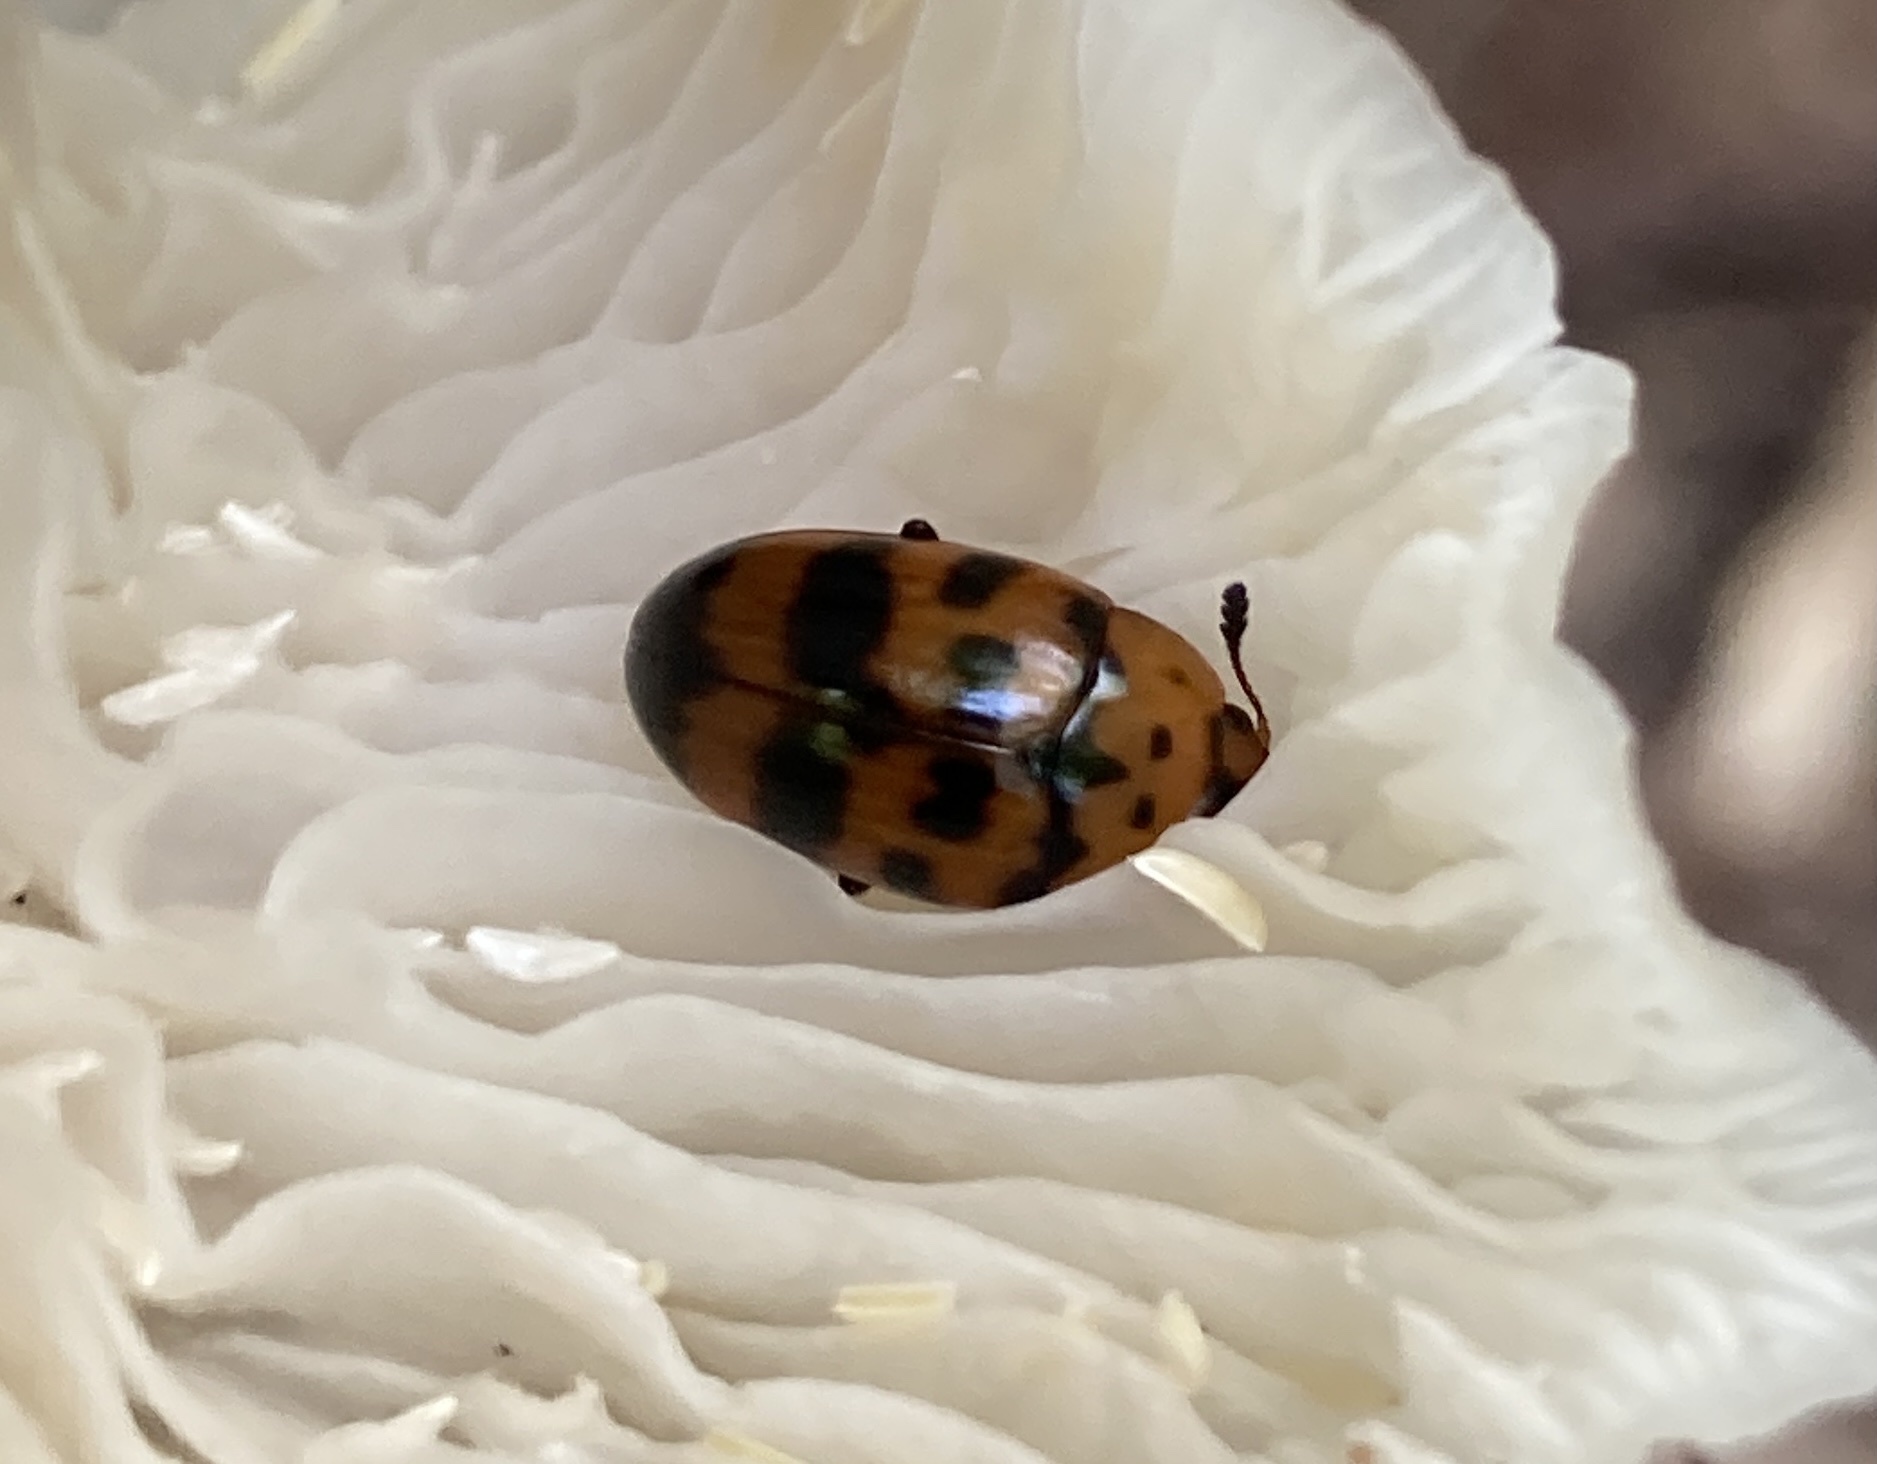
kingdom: Animalia
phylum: Arthropoda
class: Insecta
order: Coleoptera
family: Erotylidae
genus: Mycotretus
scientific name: Mycotretus ornatus
